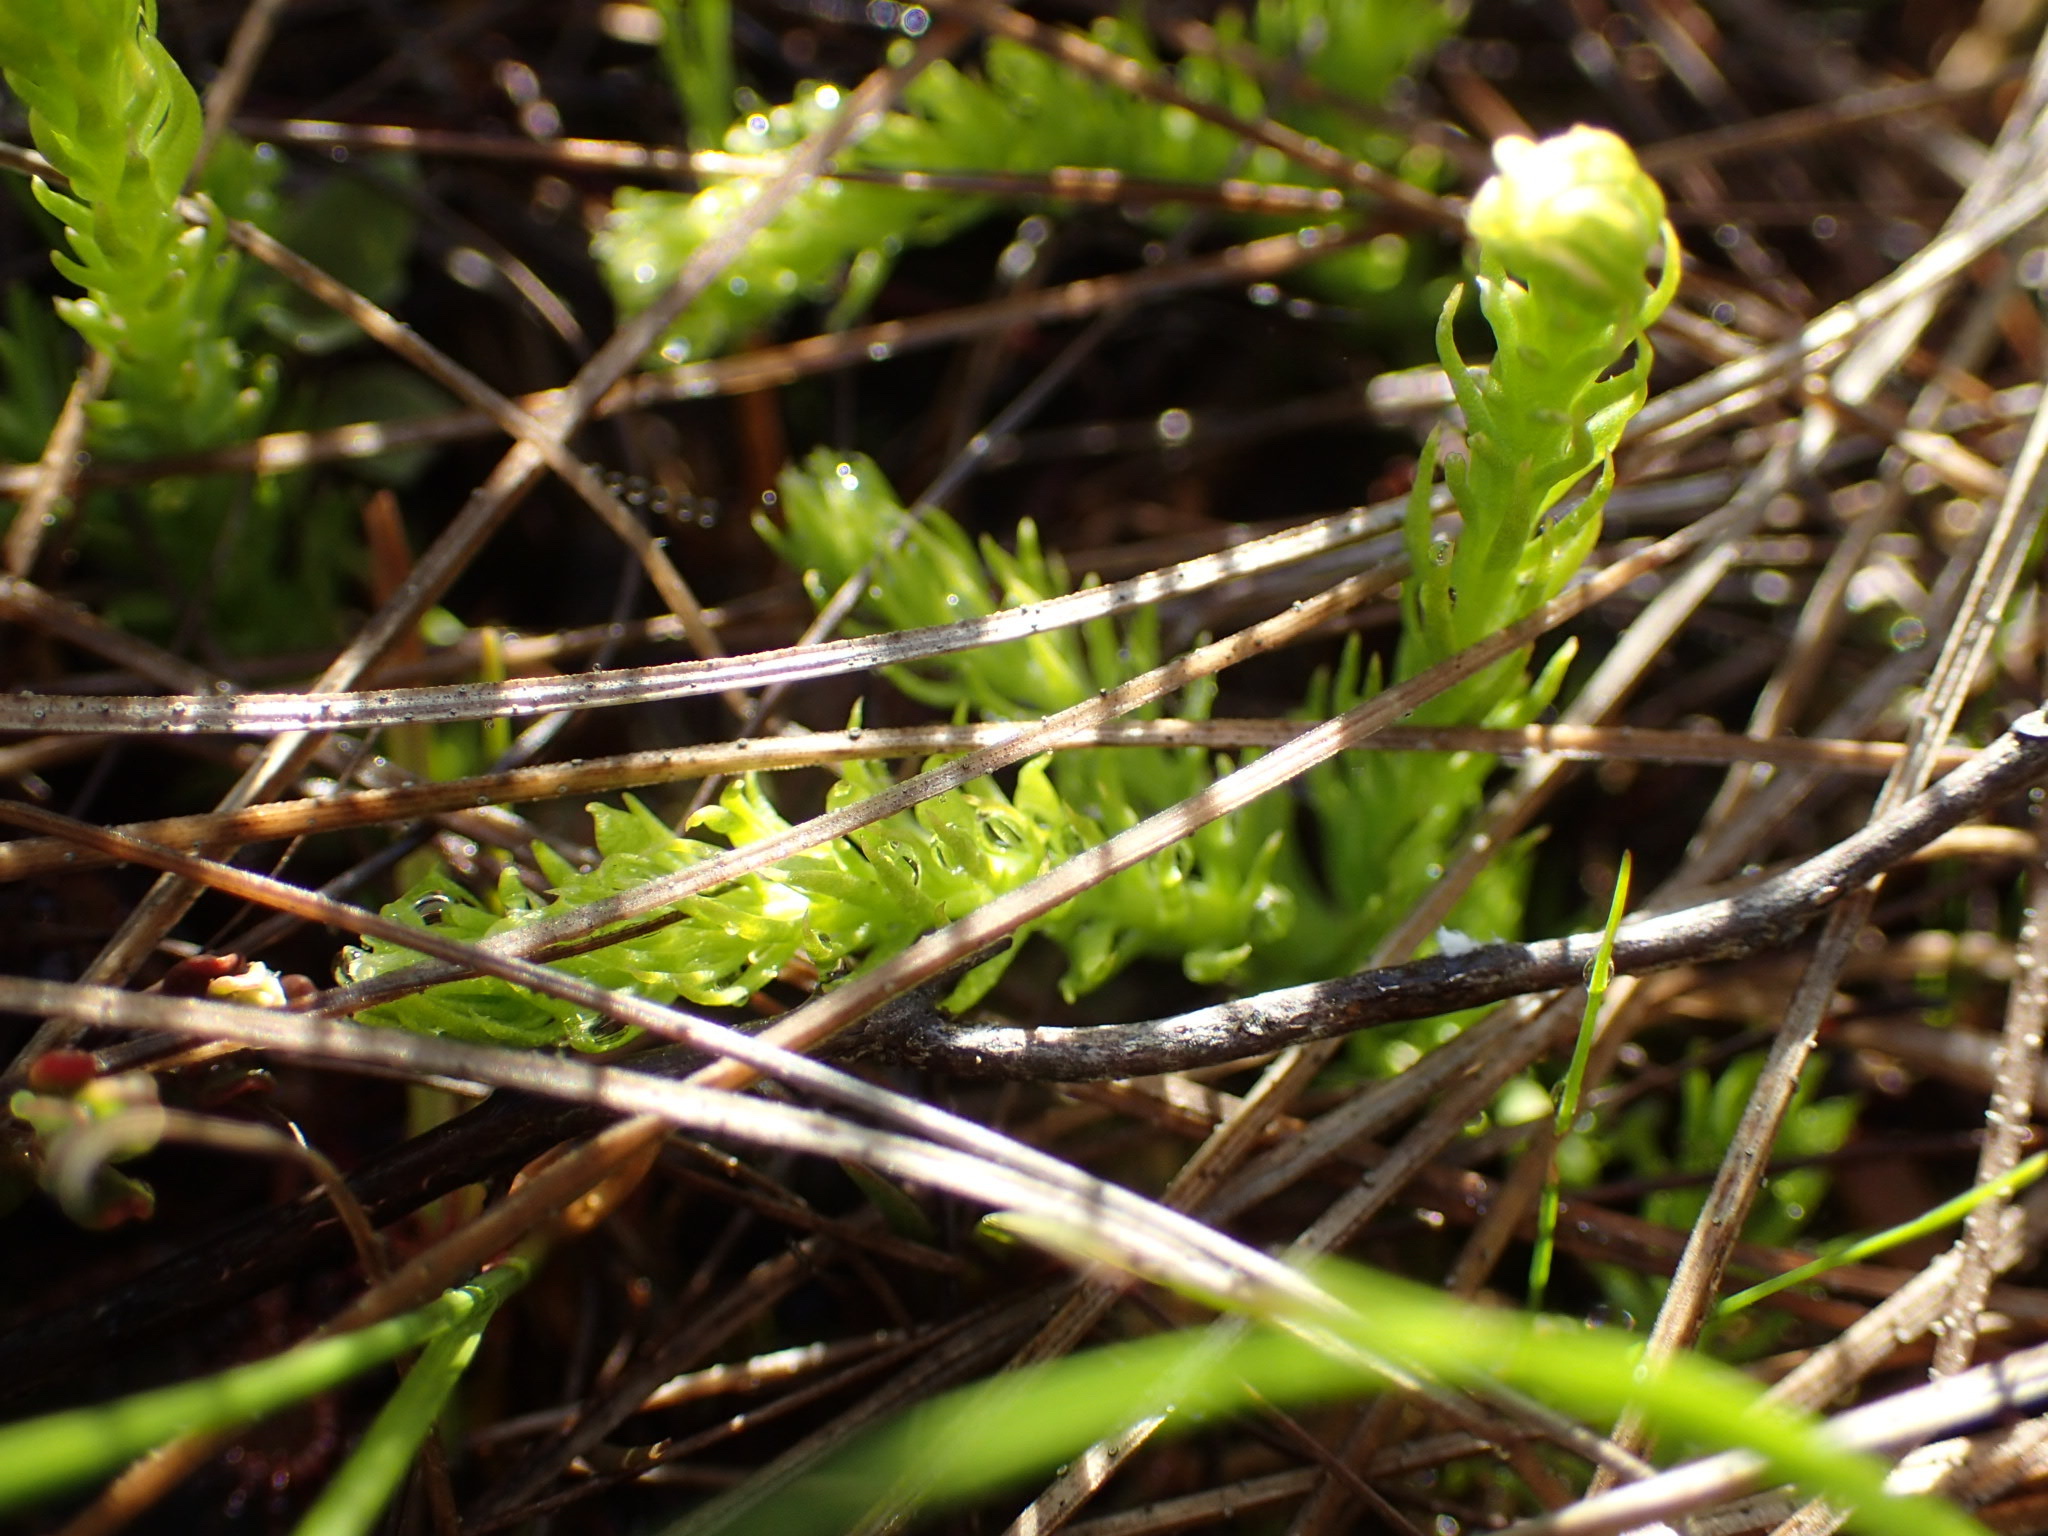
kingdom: Plantae
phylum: Tracheophyta
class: Lycopodiopsida
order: Lycopodiales
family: Lycopodiaceae
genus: Lycopodiella
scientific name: Lycopodiella inundata
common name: Marsh clubmoss
